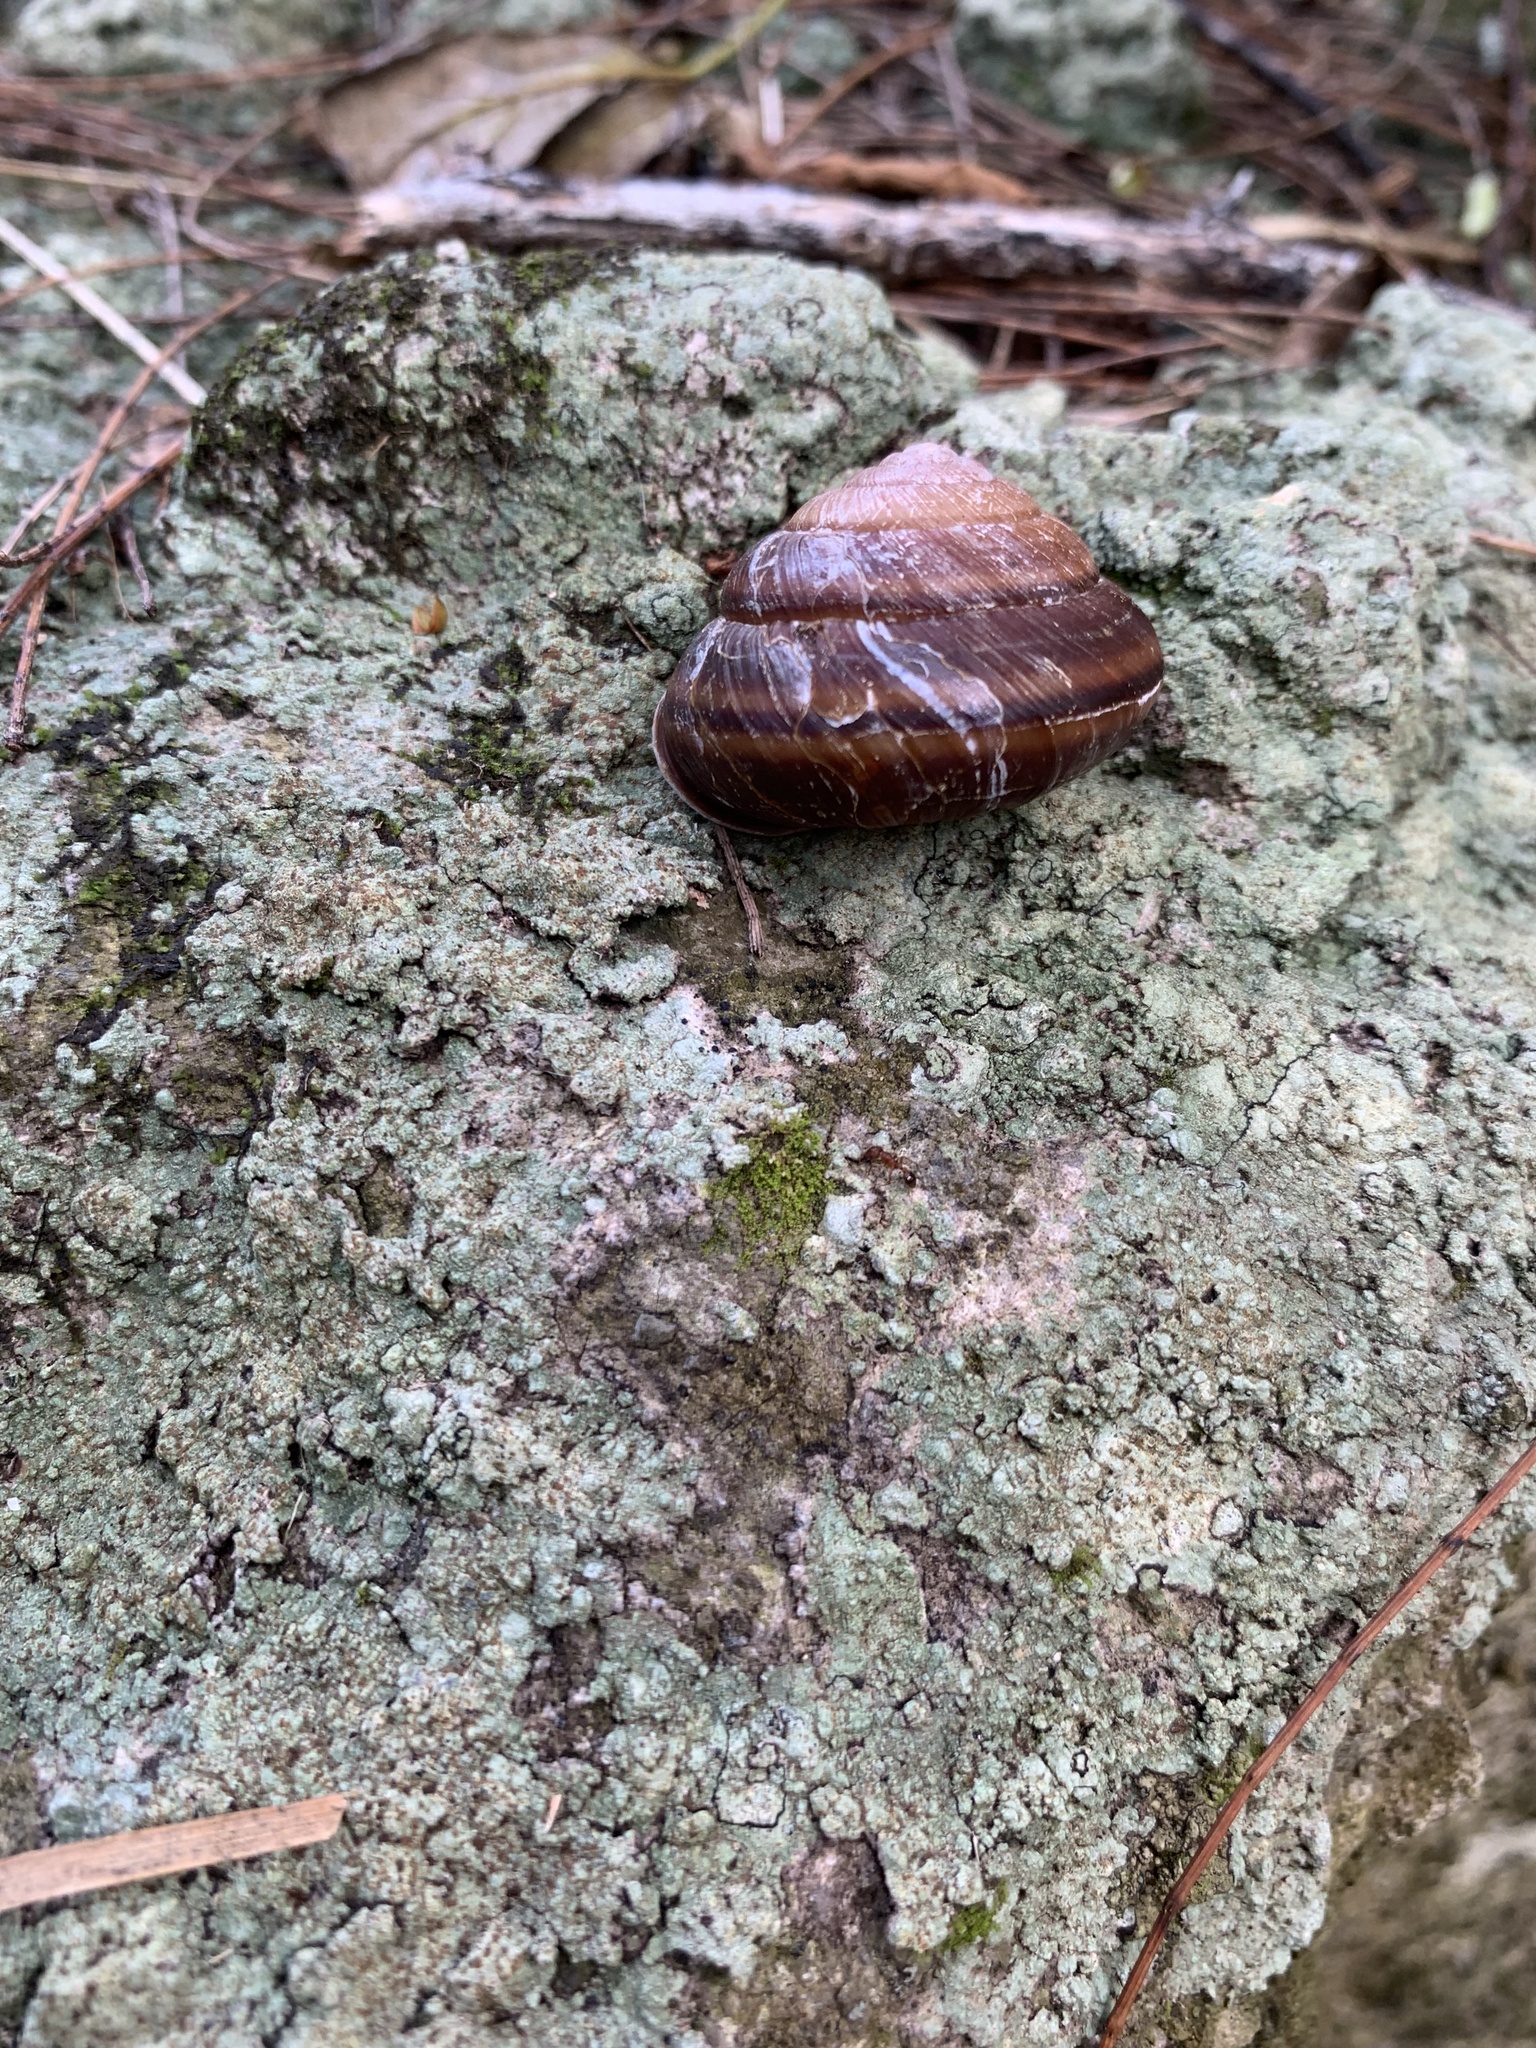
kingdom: Animalia
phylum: Mollusca
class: Gastropoda
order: Stylommatophora
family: Camaenidae
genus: Satsuma
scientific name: Satsuma mercatoria
